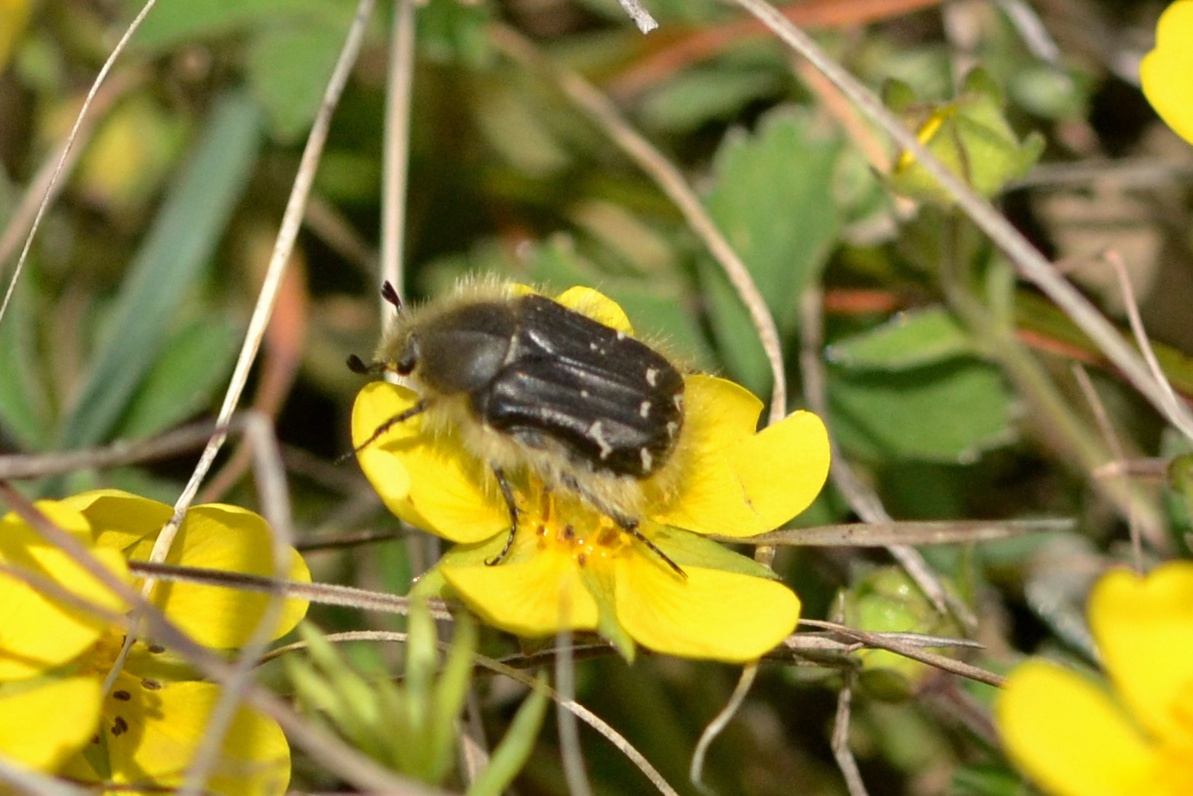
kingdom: Animalia
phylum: Arthropoda
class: Insecta
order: Coleoptera
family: Scarabaeidae
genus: Tropinota
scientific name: Tropinota hirta
